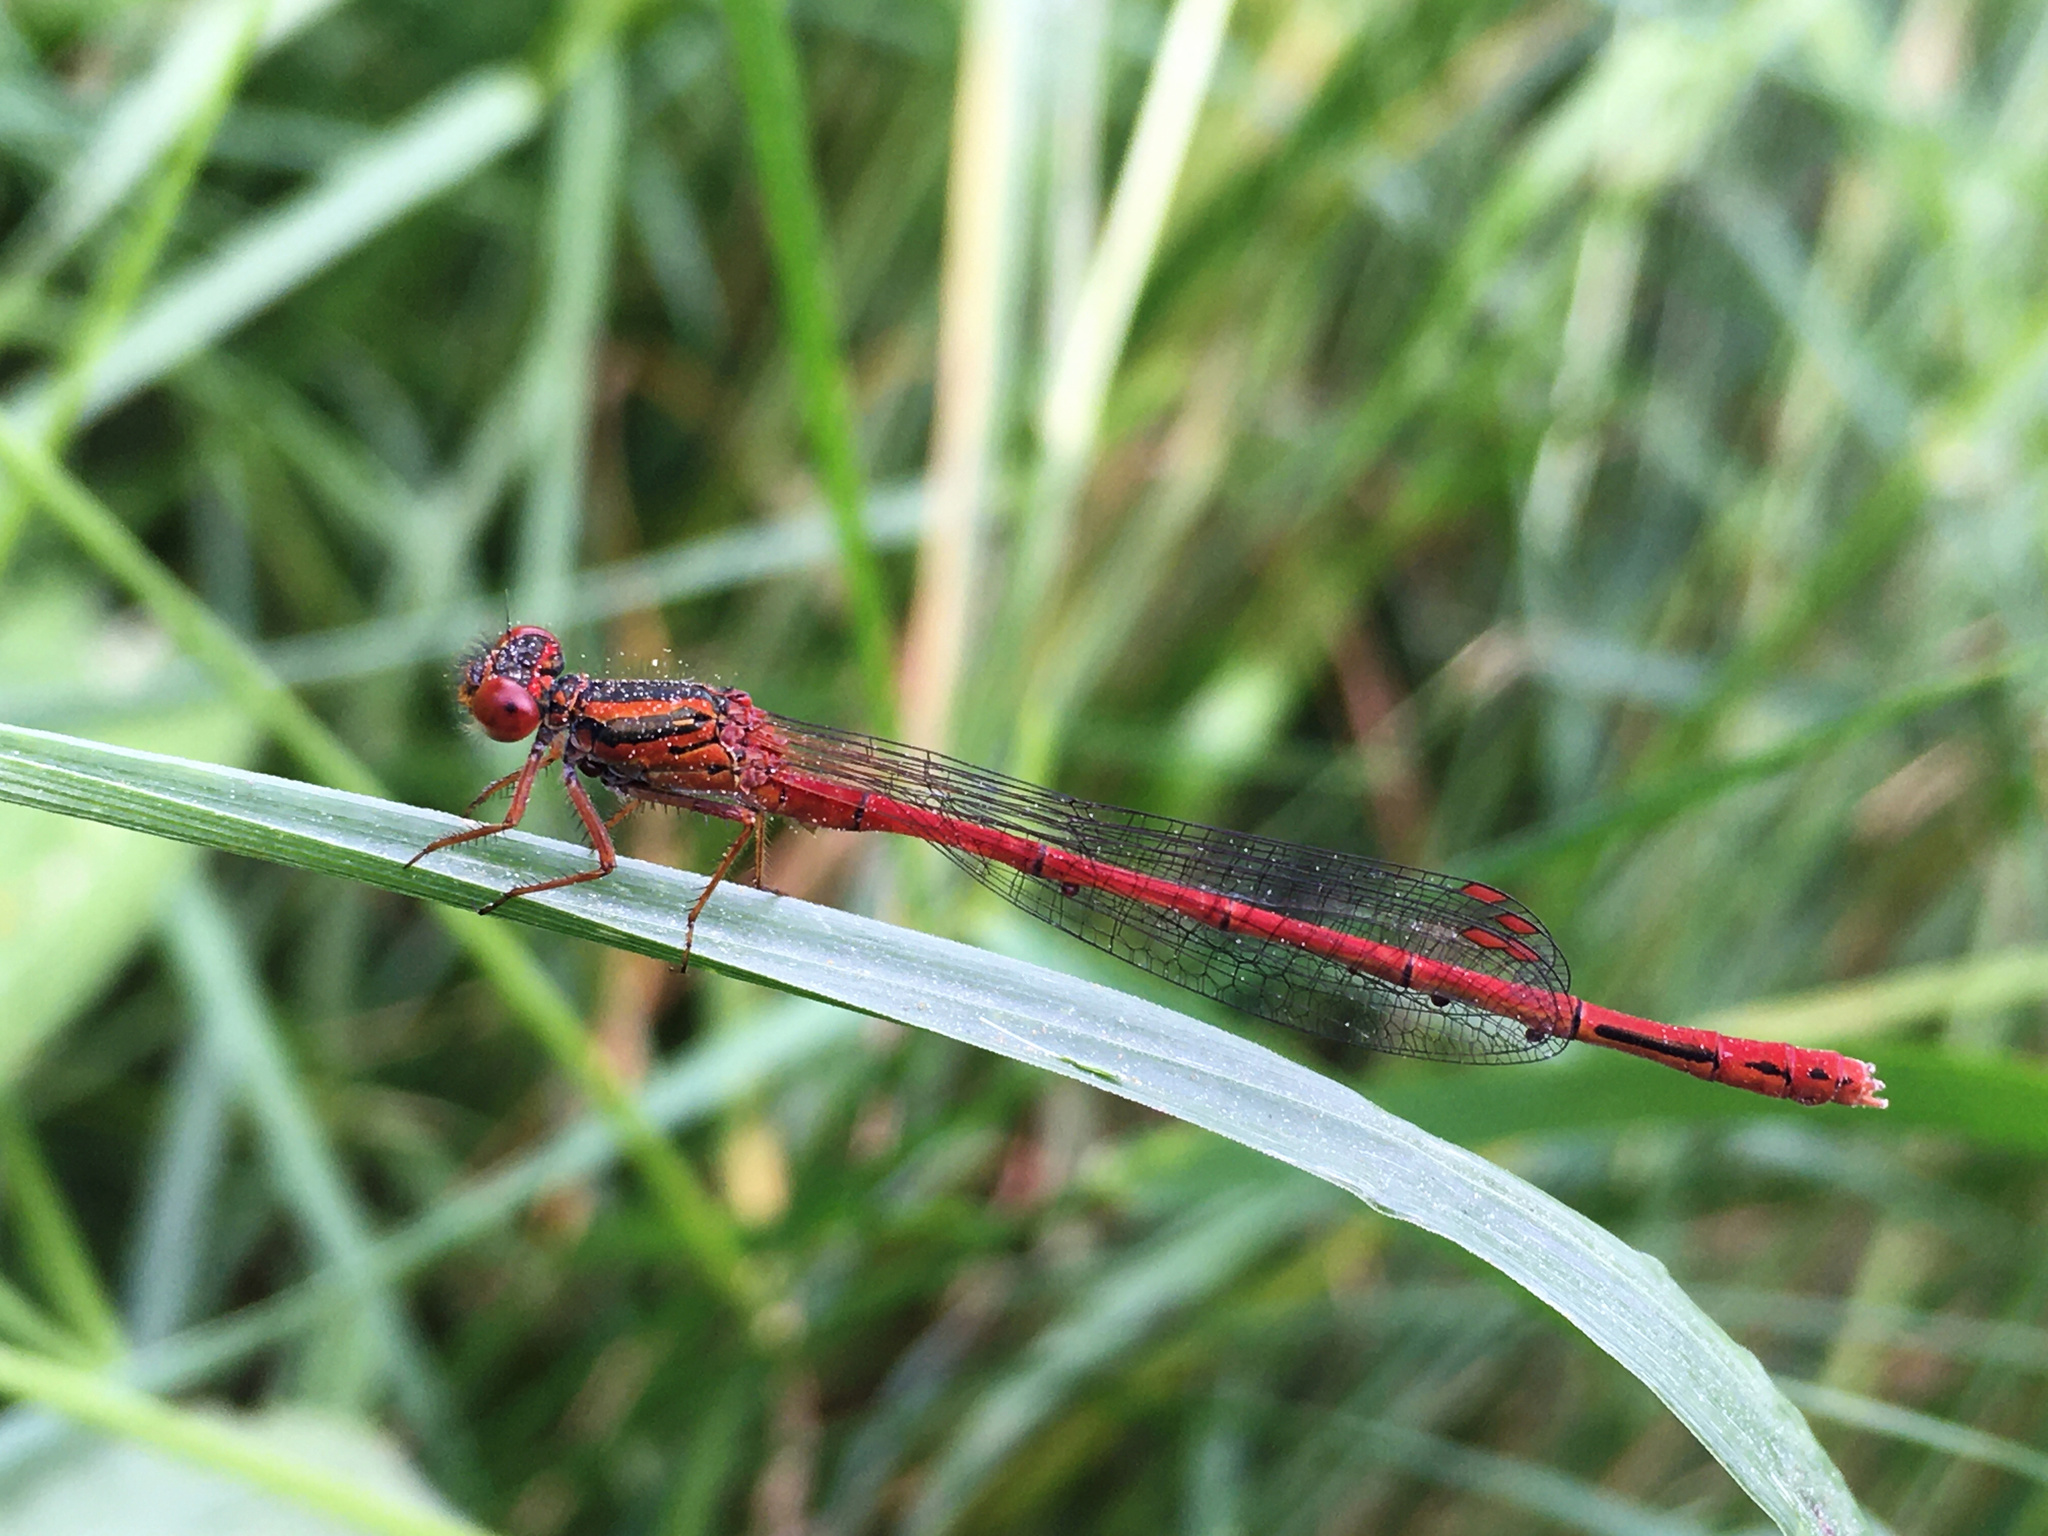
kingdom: Animalia
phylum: Arthropoda
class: Insecta
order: Odonata
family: Coenagrionidae
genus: Xanthocnemis
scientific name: Xanthocnemis zealandica
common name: Common redcoat damselfly
